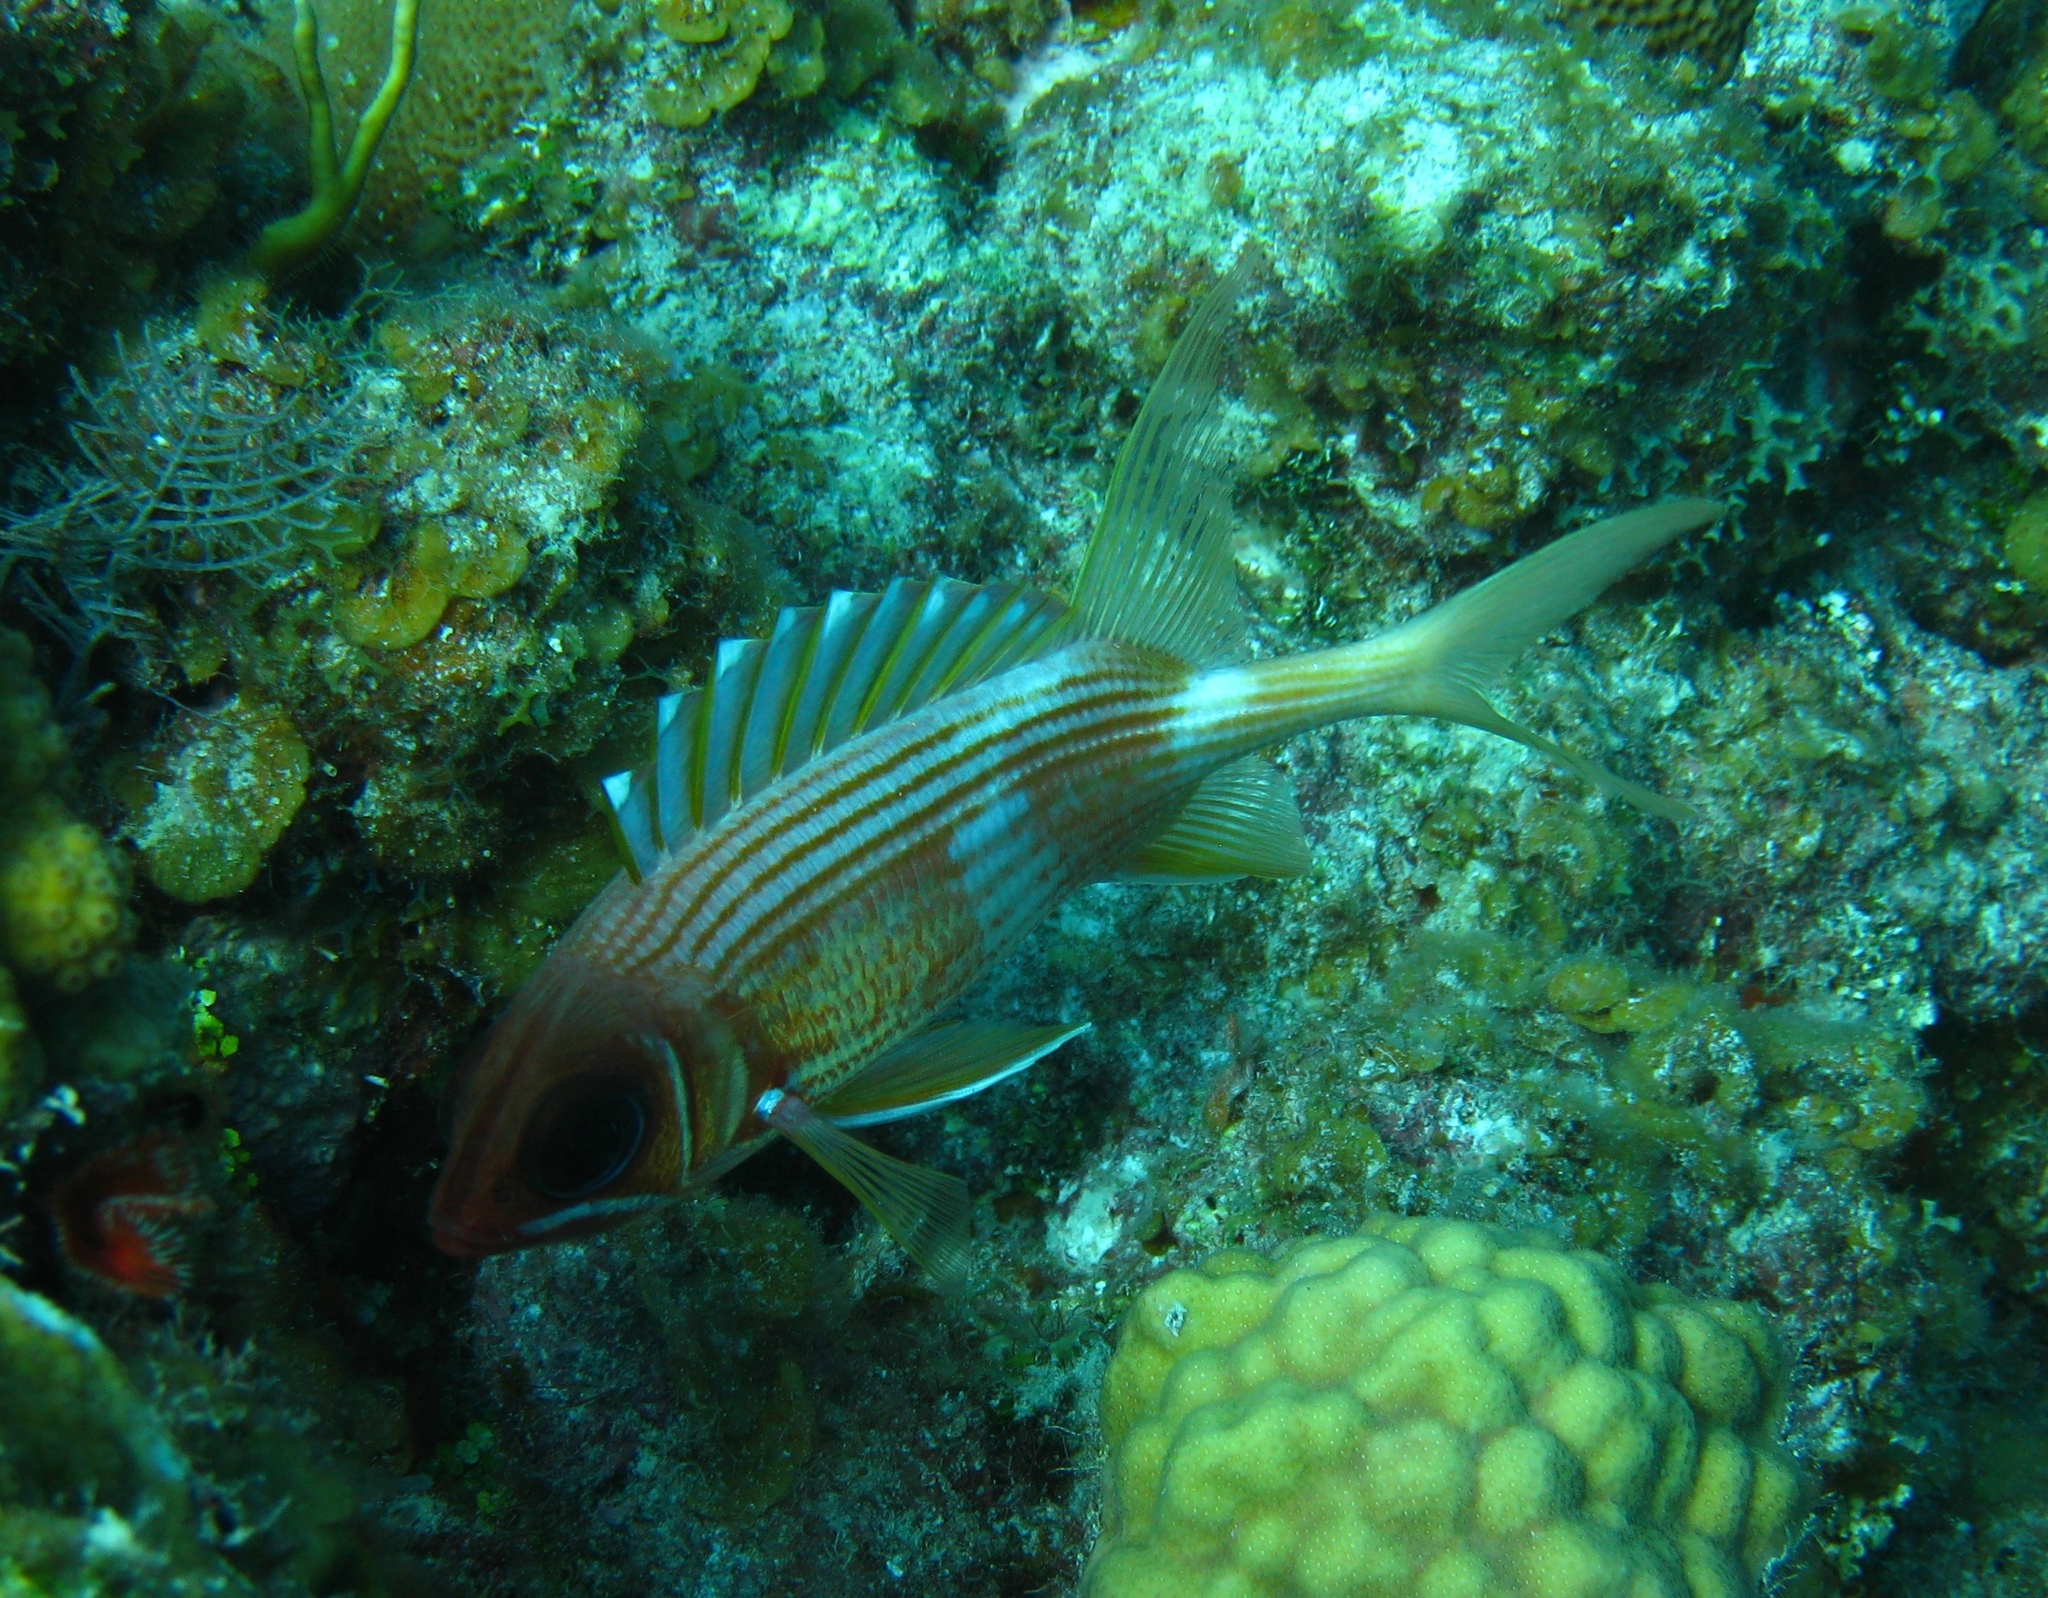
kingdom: Animalia
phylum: Chordata
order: Beryciformes
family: Holocentridae
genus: Holocentrus
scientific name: Holocentrus rufus
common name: Longspine squirrelfish
